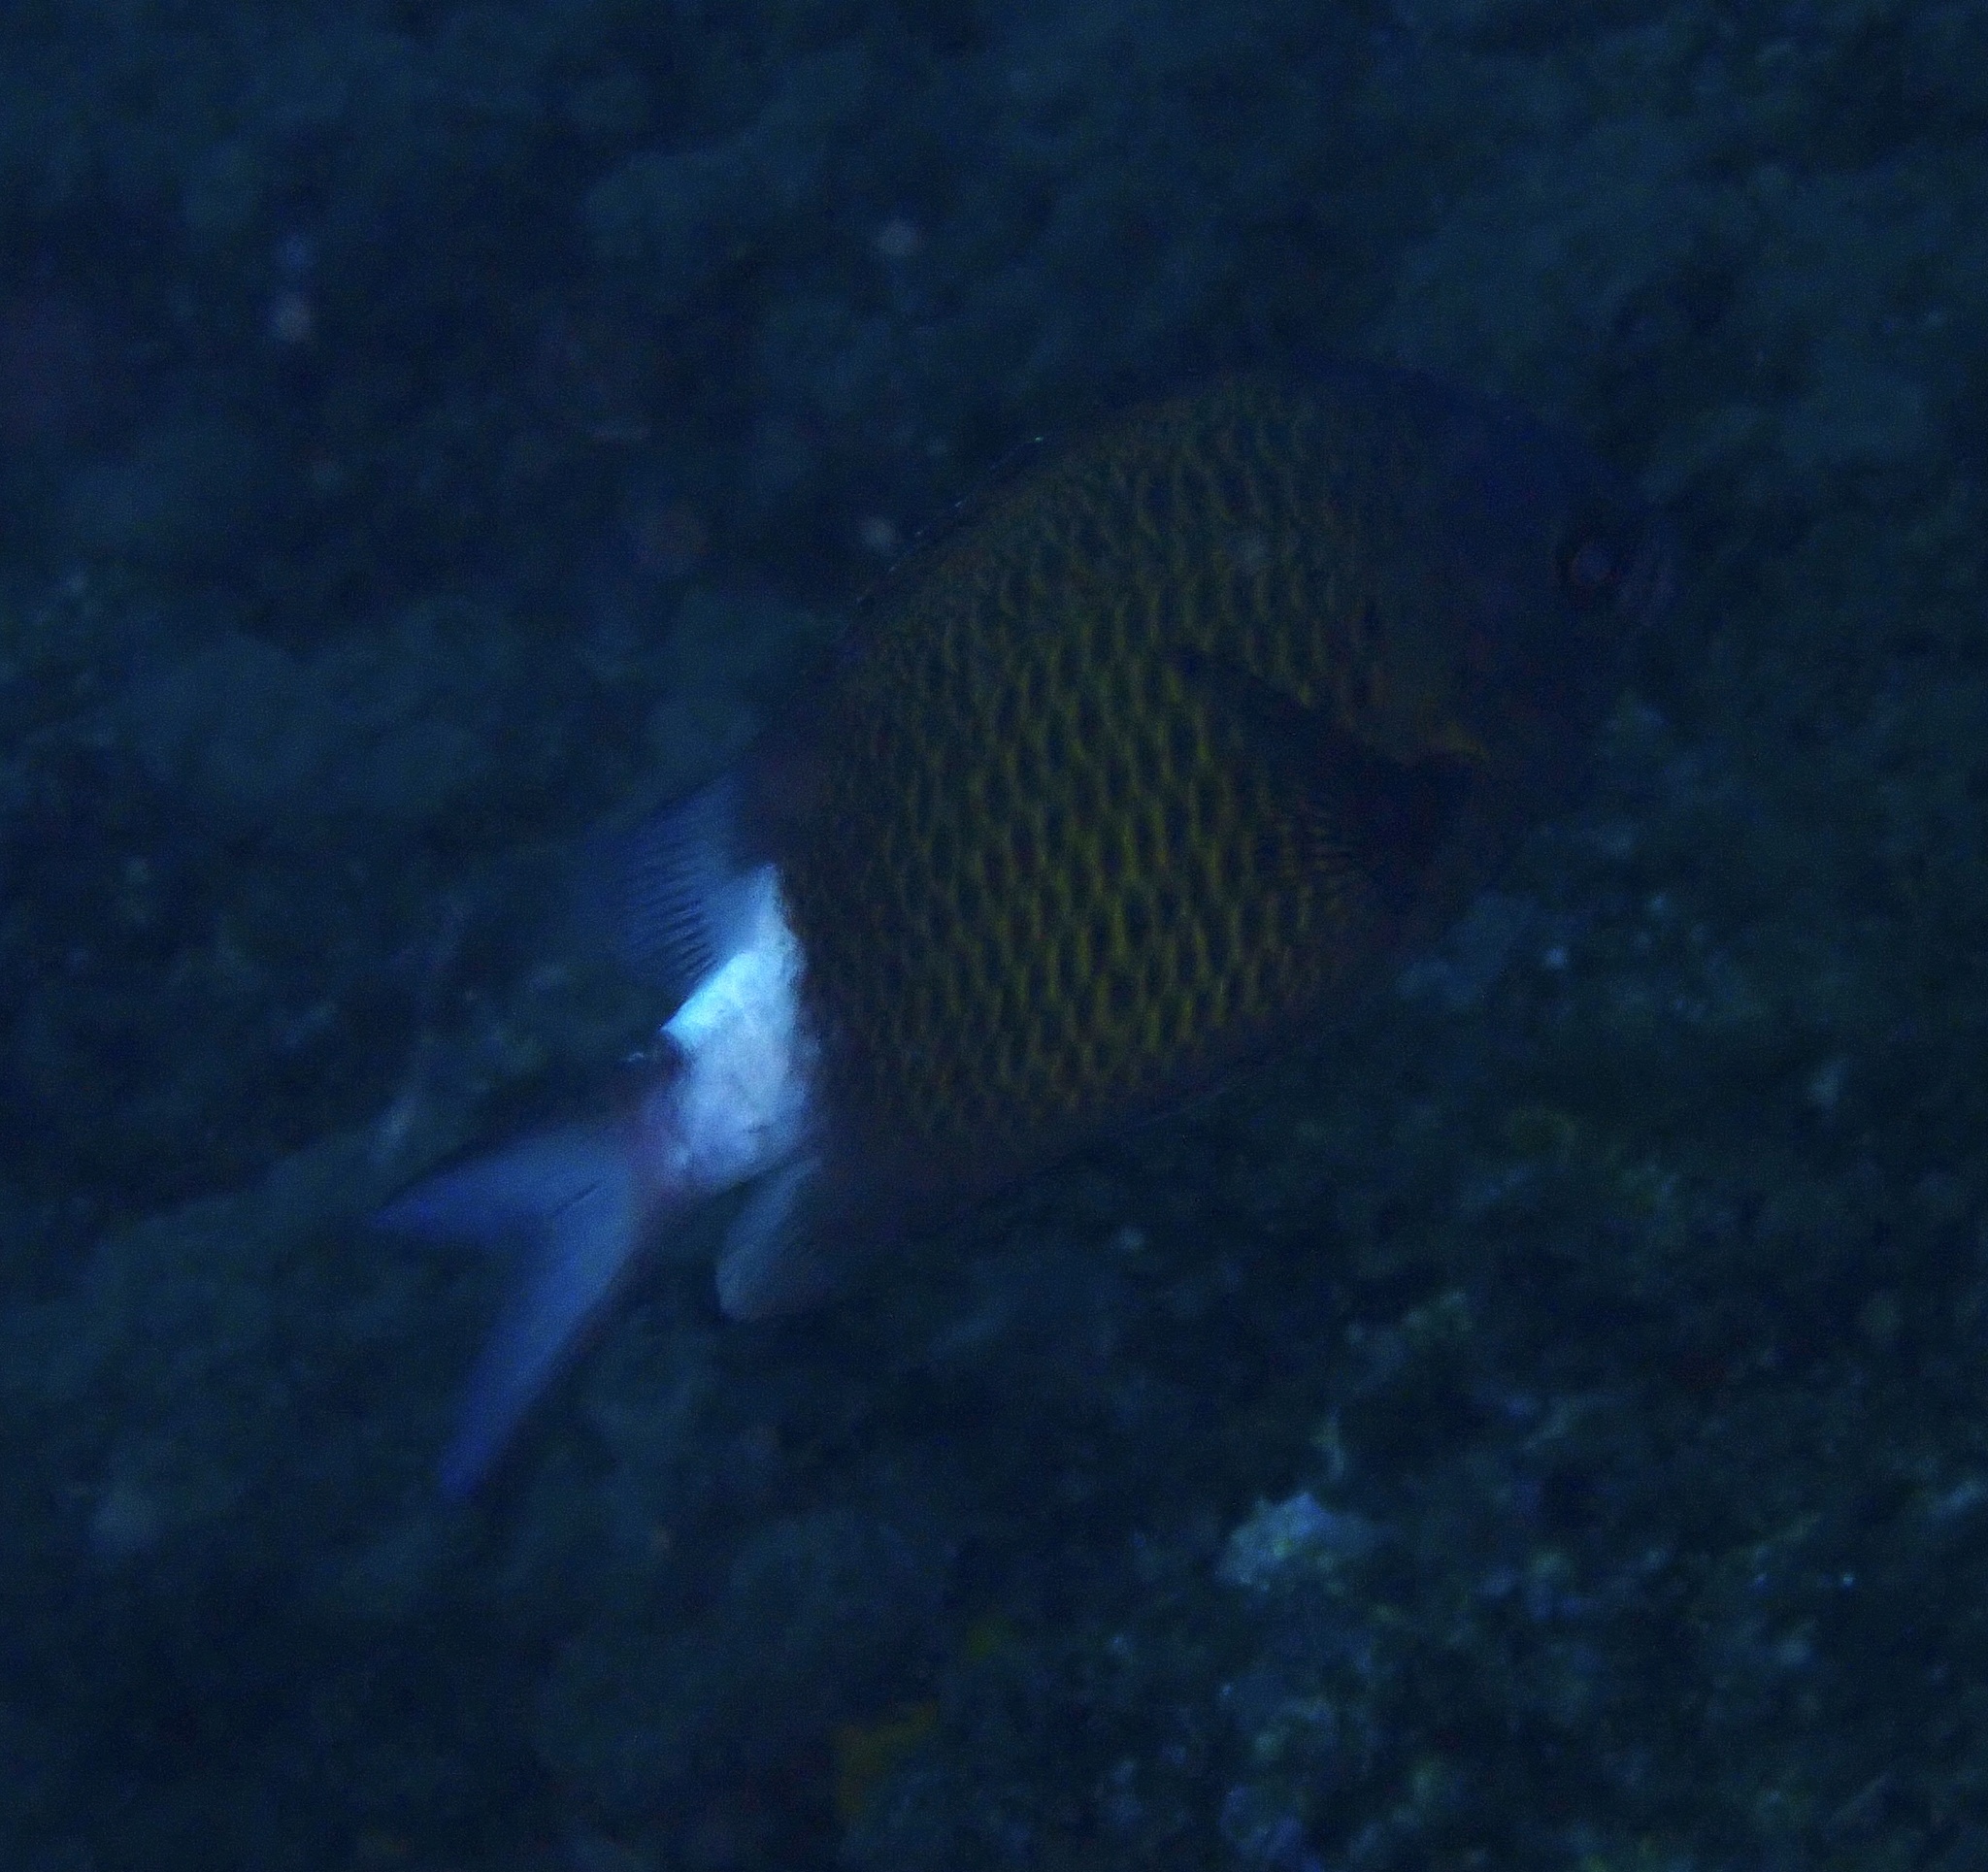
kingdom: Animalia
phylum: Chordata
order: Perciformes
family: Pomacentridae
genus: Chromis
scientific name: Chromis chrysura
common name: Stout-body chromis
